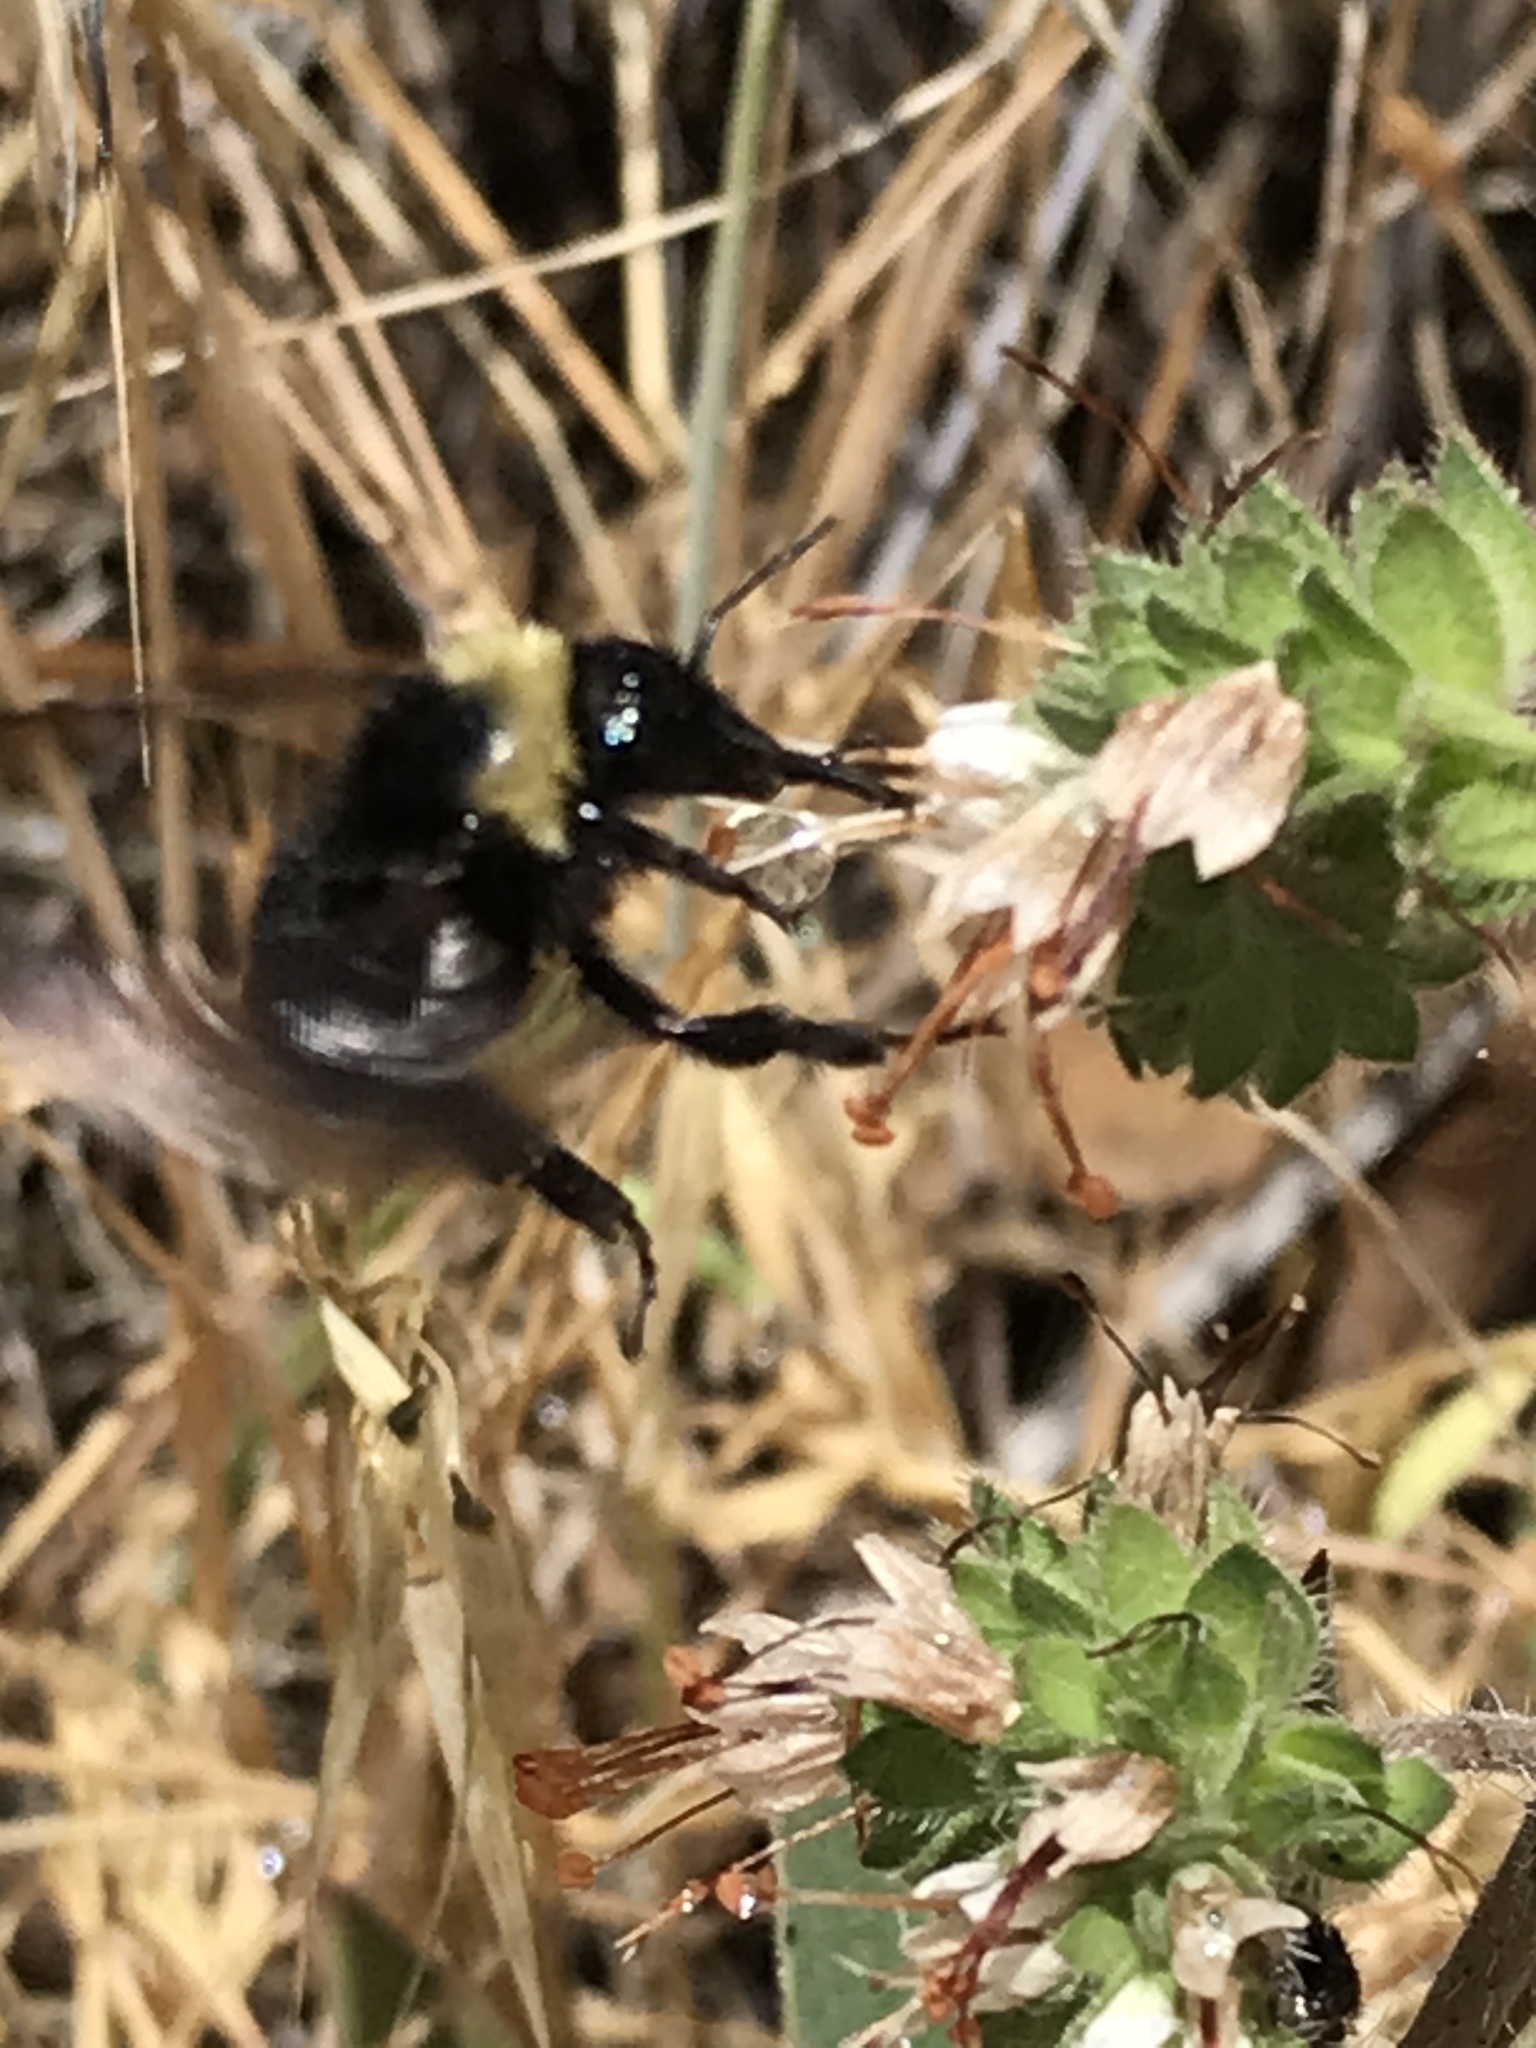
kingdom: Animalia
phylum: Arthropoda
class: Insecta
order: Hymenoptera
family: Apidae
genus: Bombus
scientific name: Bombus californicus
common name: California bumble bee
